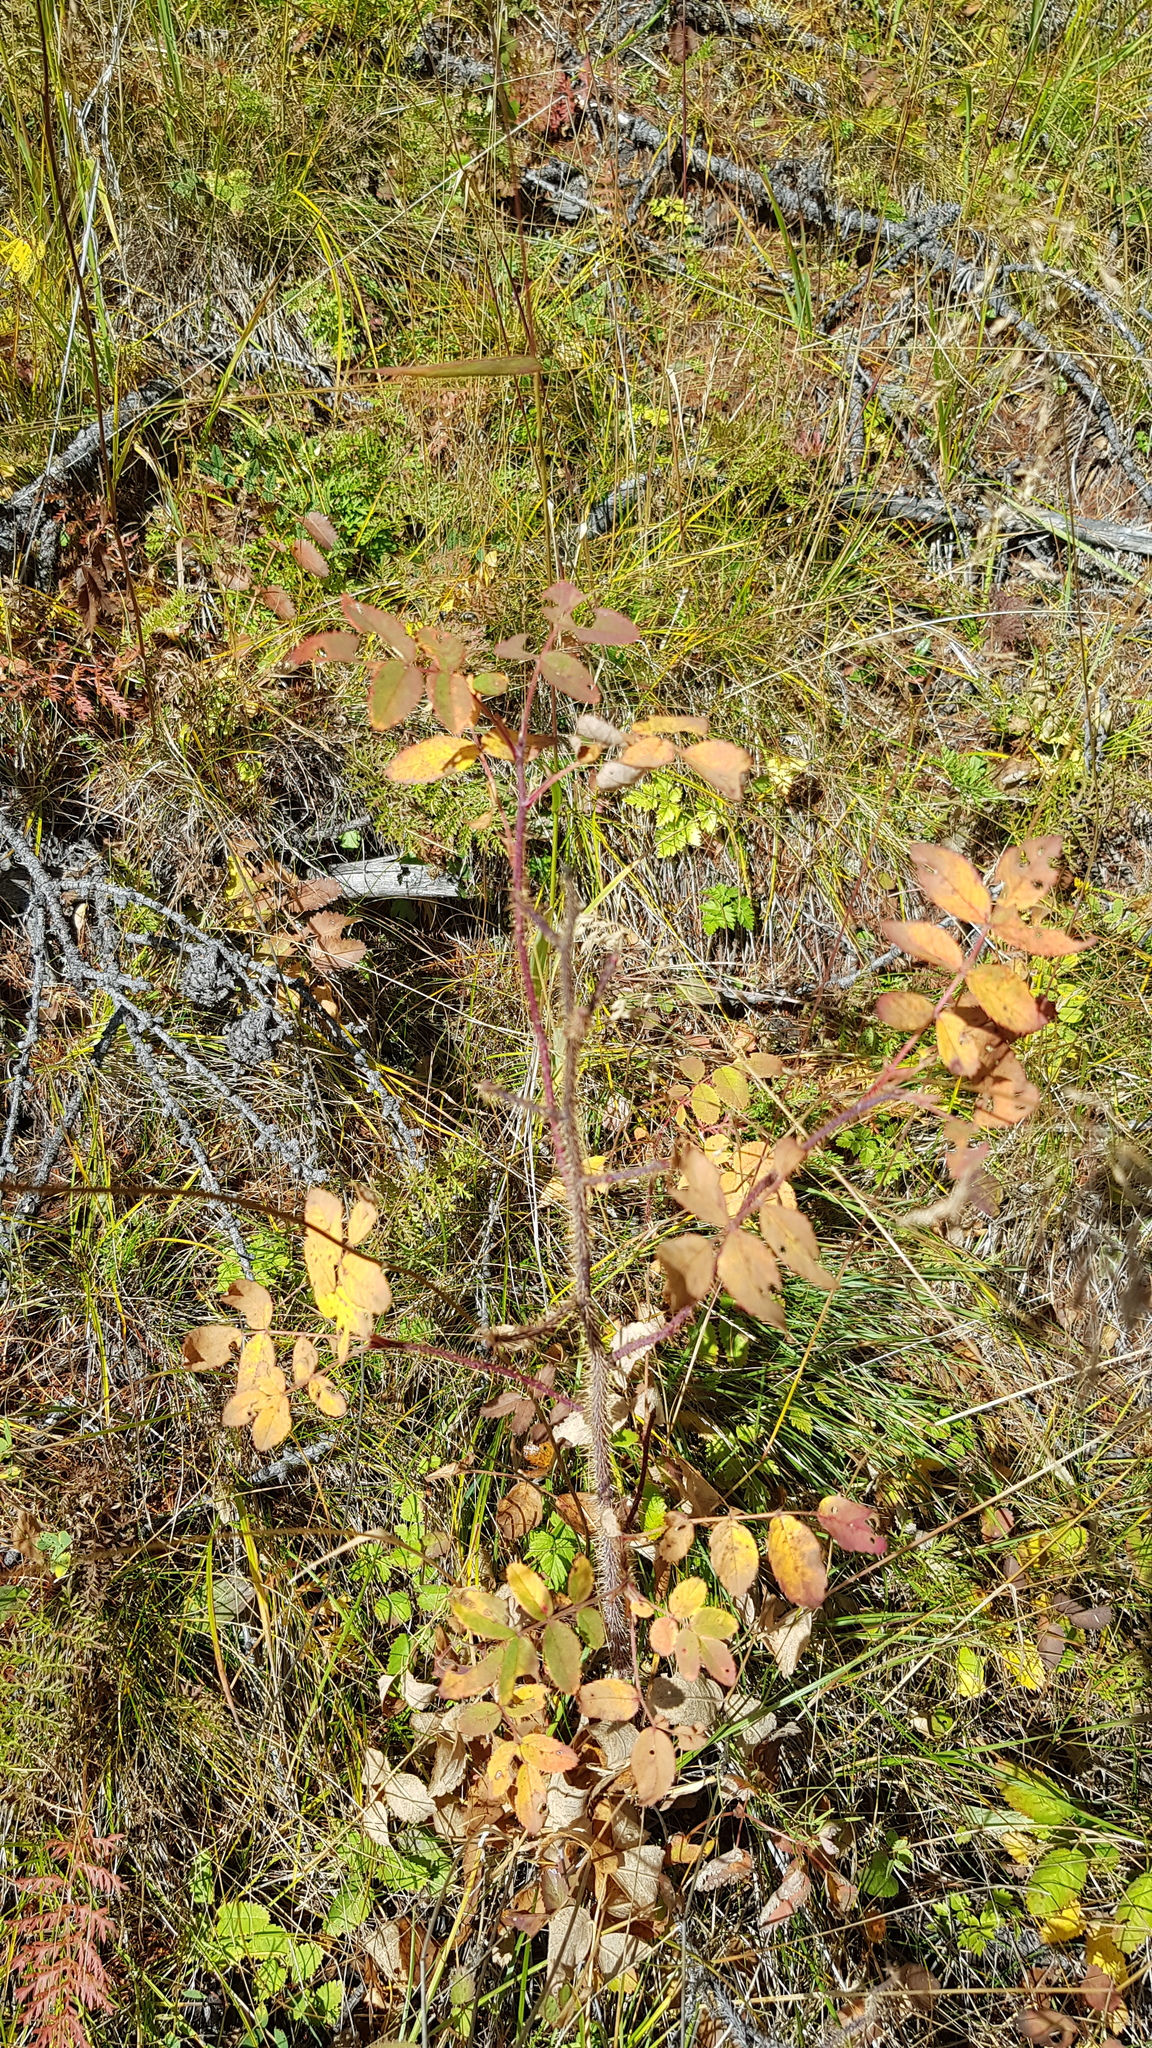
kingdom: Plantae
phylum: Tracheophyta
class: Magnoliopsida
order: Rosales
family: Rosaceae
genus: Rosa
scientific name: Rosa acicularis
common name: Prickly rose
